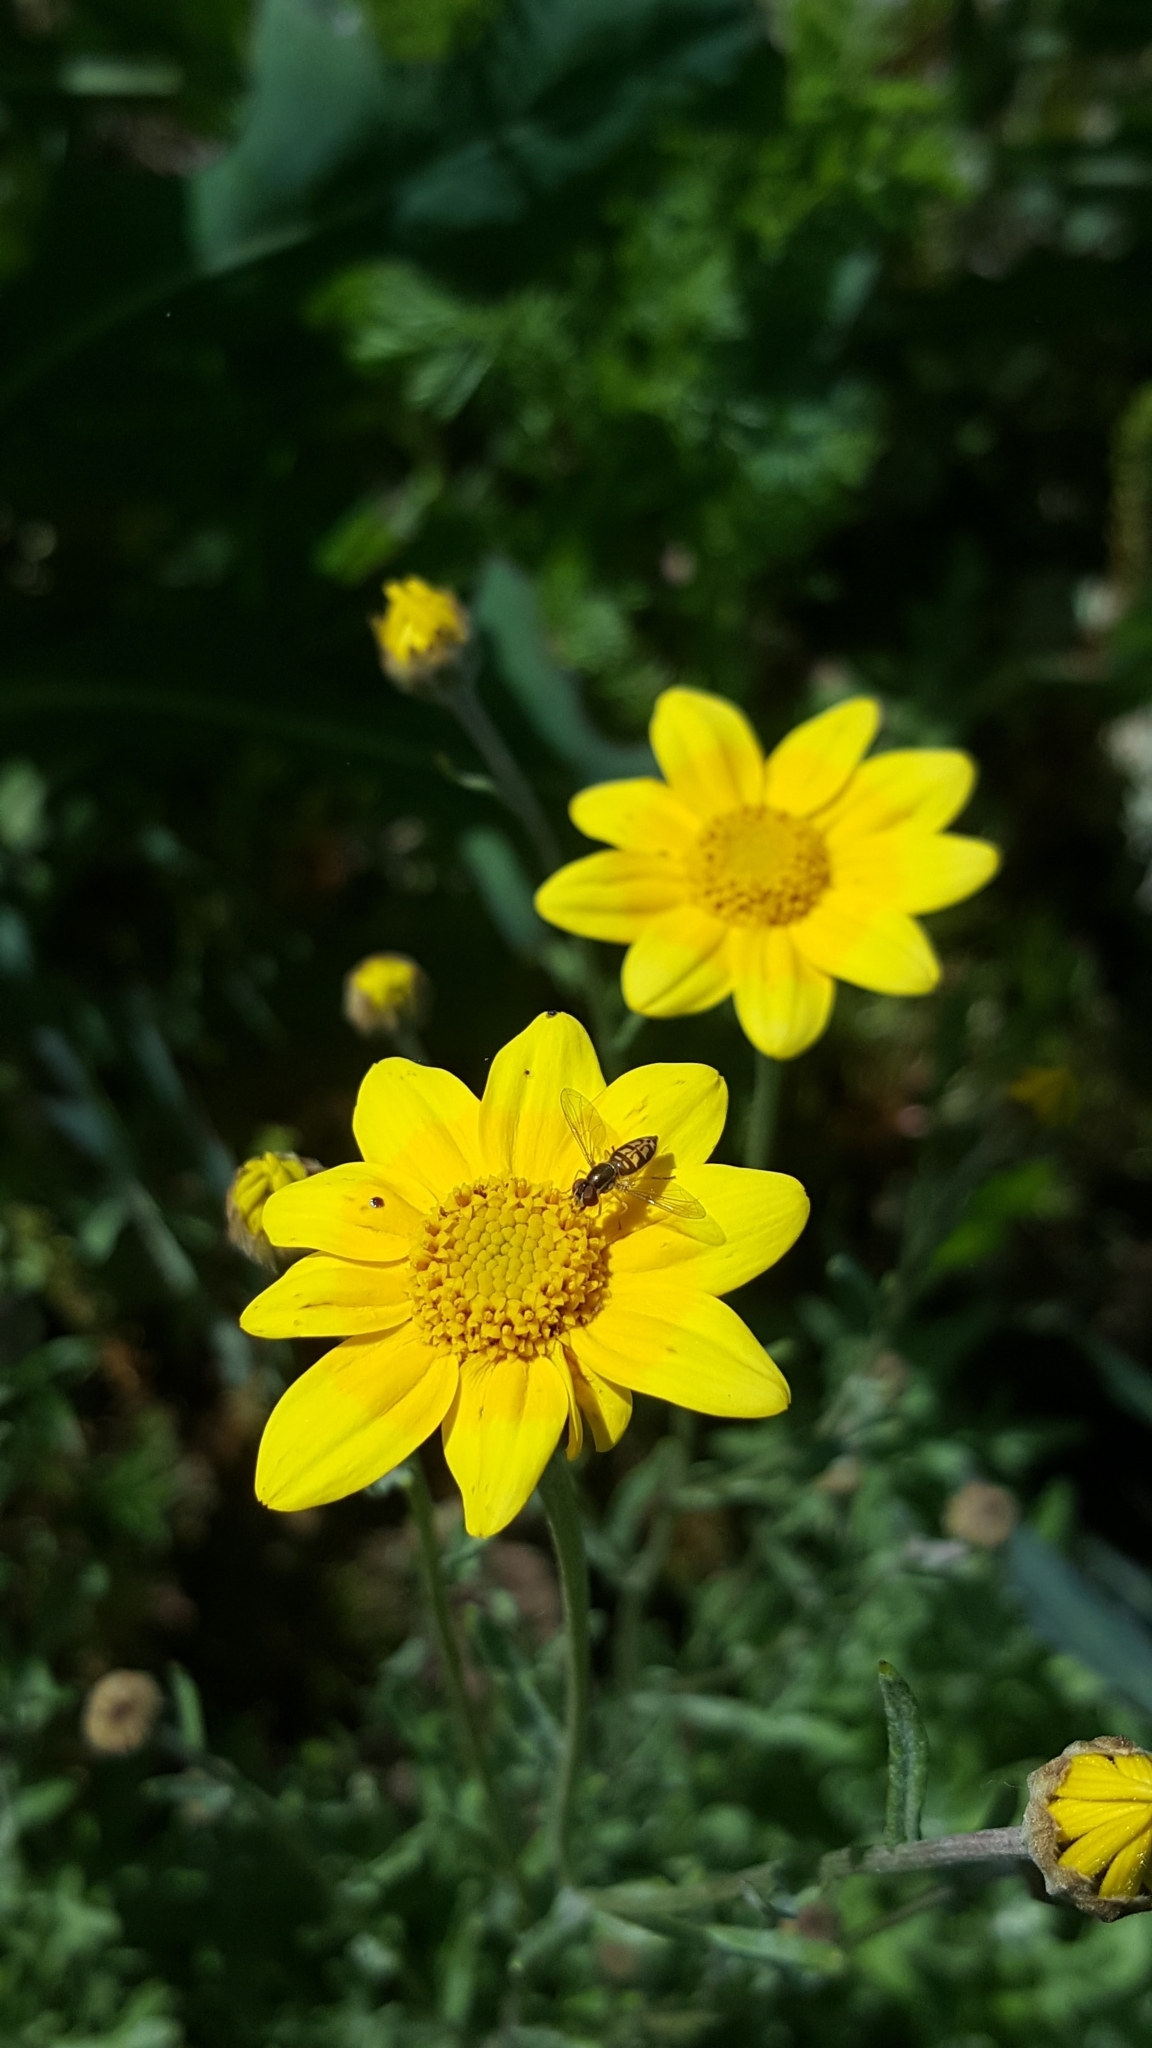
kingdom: Animalia
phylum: Arthropoda
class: Insecta
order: Diptera
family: Syrphidae
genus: Toxomerus
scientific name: Toxomerus marginatus
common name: Syrphid fly
